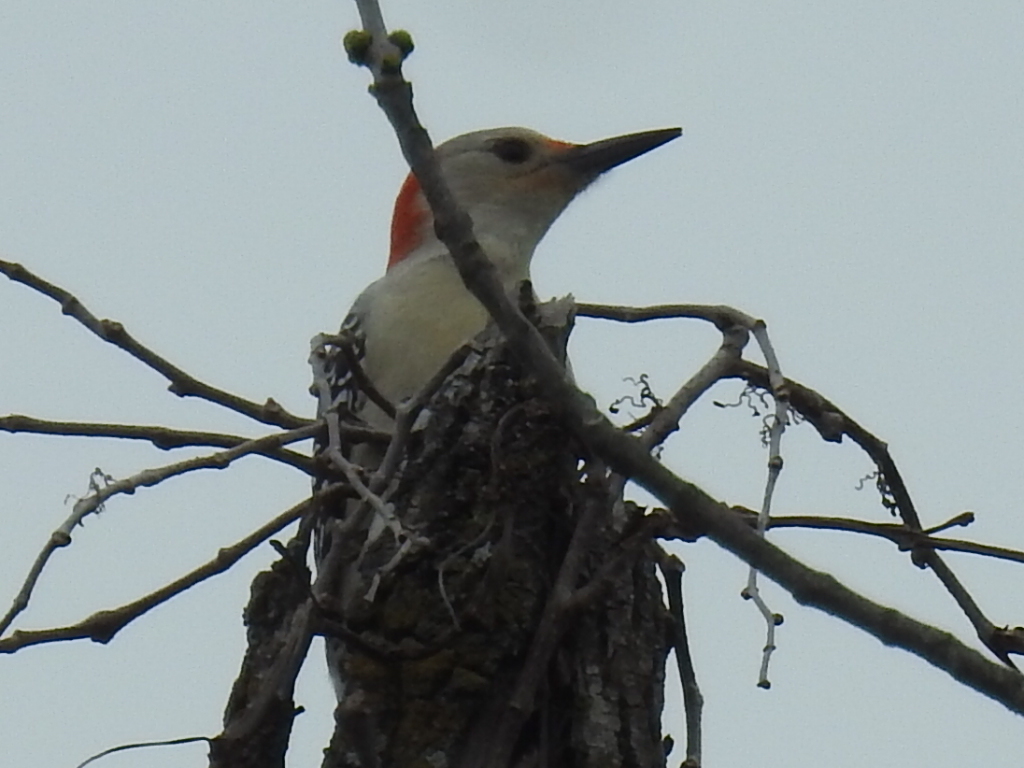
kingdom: Animalia
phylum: Chordata
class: Aves
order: Piciformes
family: Picidae
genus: Melanerpes
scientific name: Melanerpes carolinus
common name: Red-bellied woodpecker
